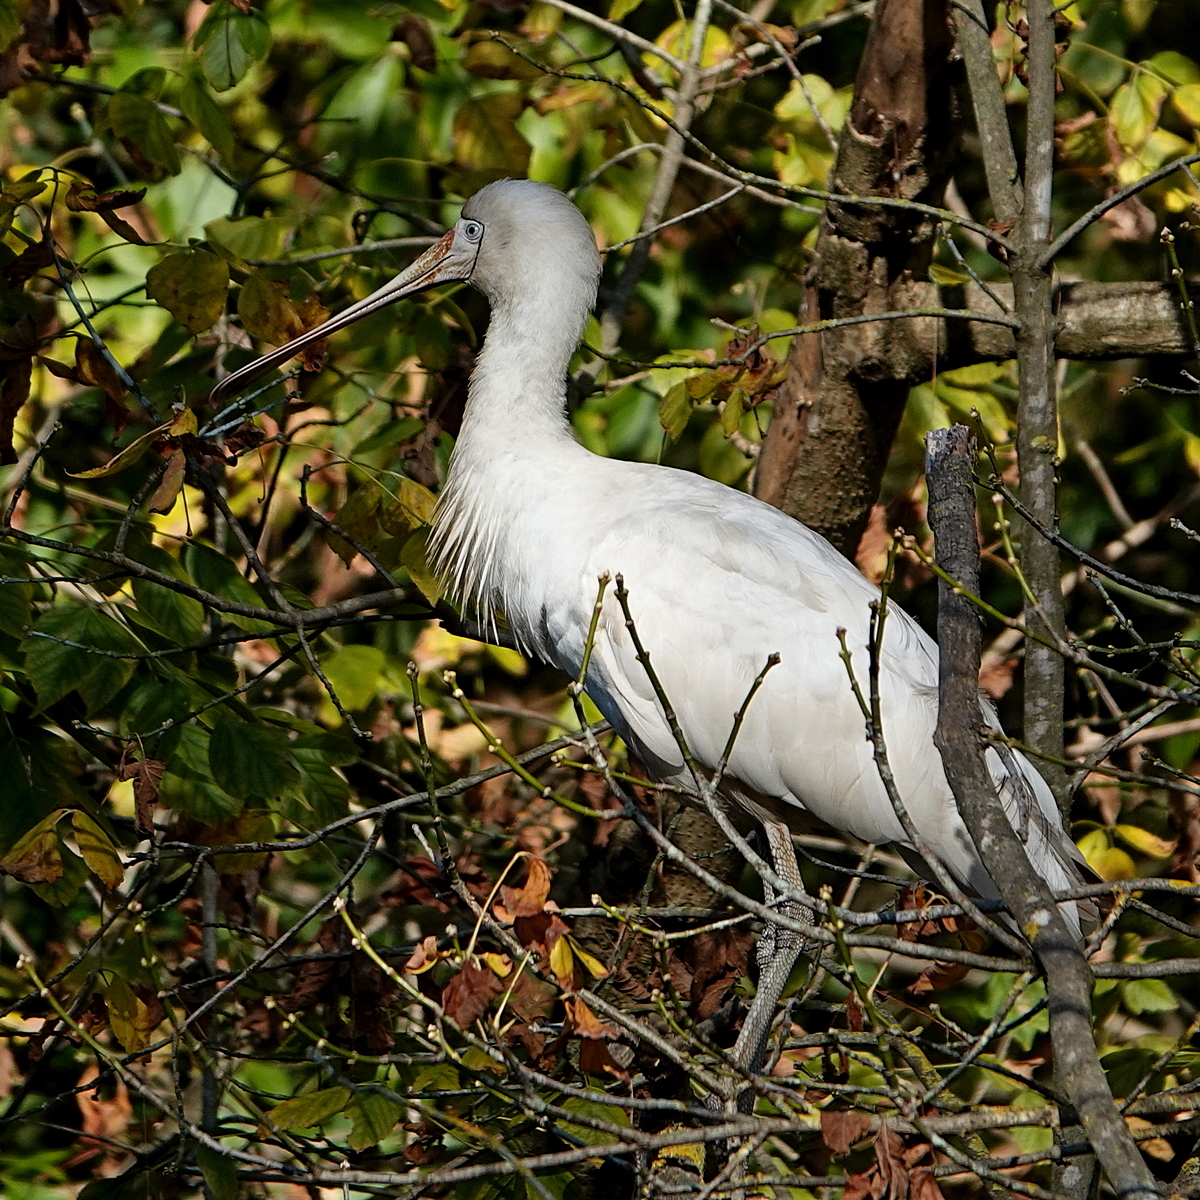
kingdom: Animalia
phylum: Chordata
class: Aves
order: Pelecaniformes
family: Threskiornithidae
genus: Platalea
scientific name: Platalea flavipes
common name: Yellow-billed spoonbill
